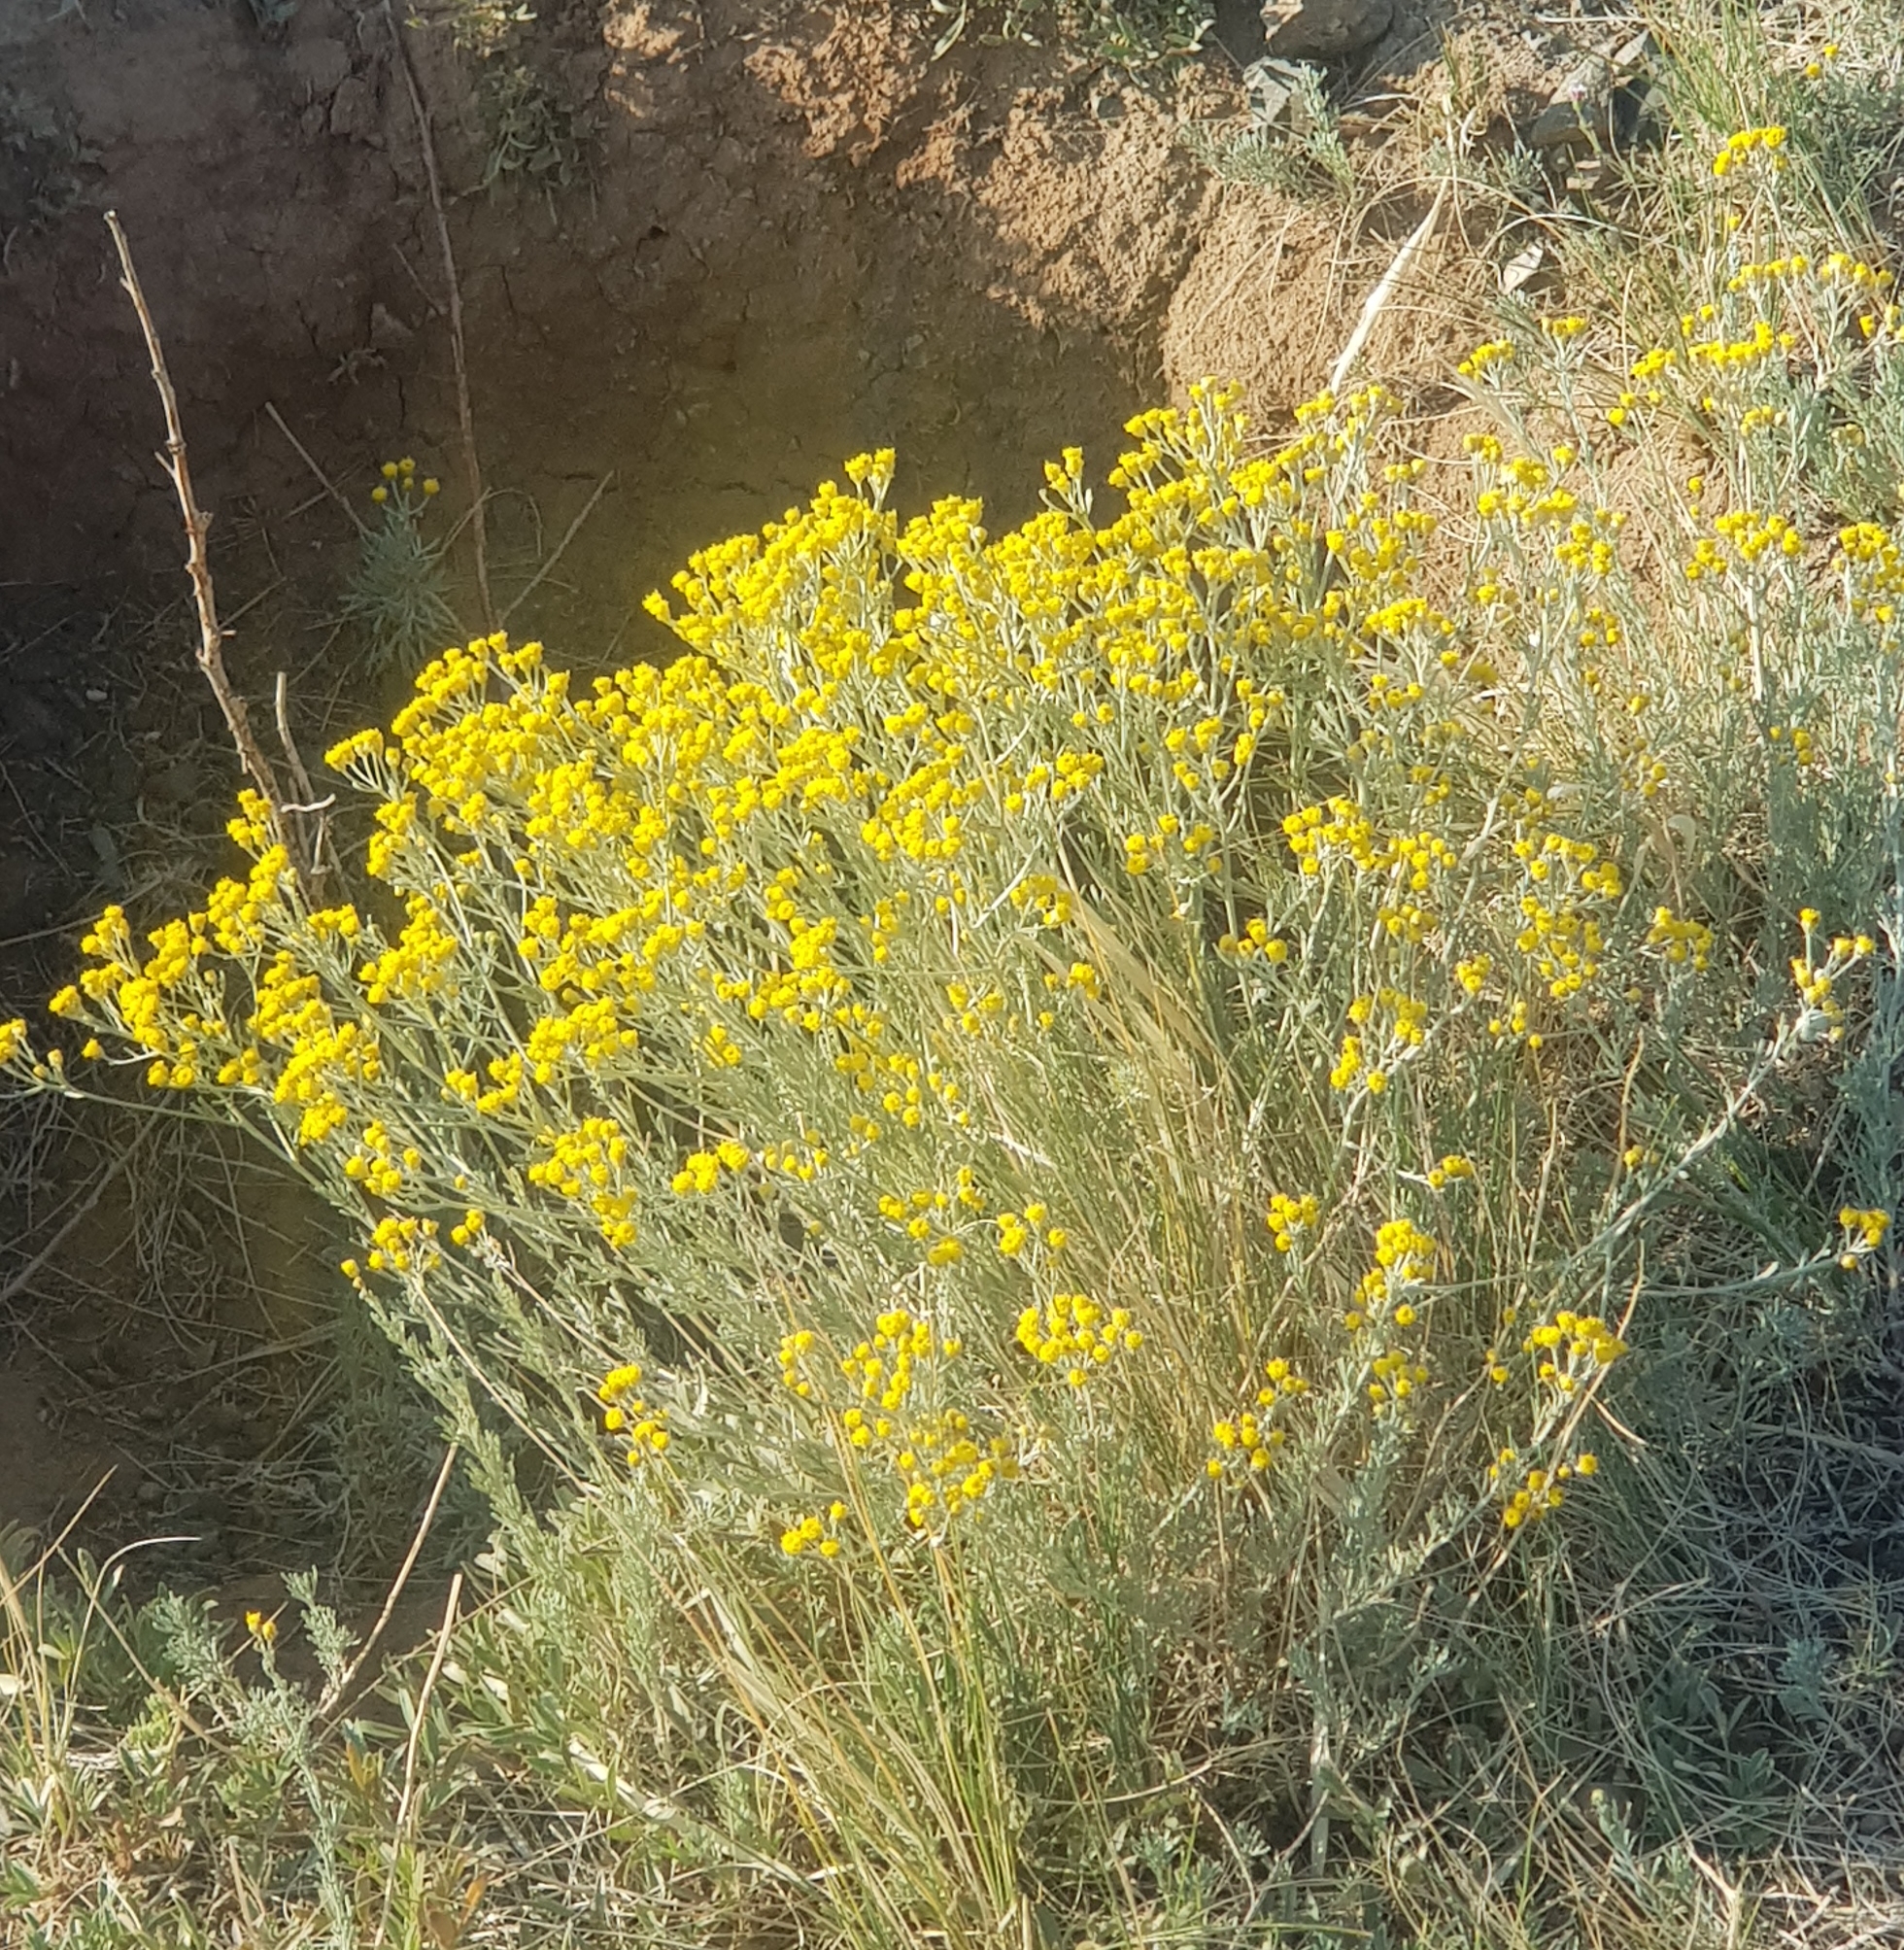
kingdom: Plantae
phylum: Tracheophyta
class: Magnoliopsida
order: Asterales
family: Asteraceae
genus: Ajania
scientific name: Ajania achilleoides
